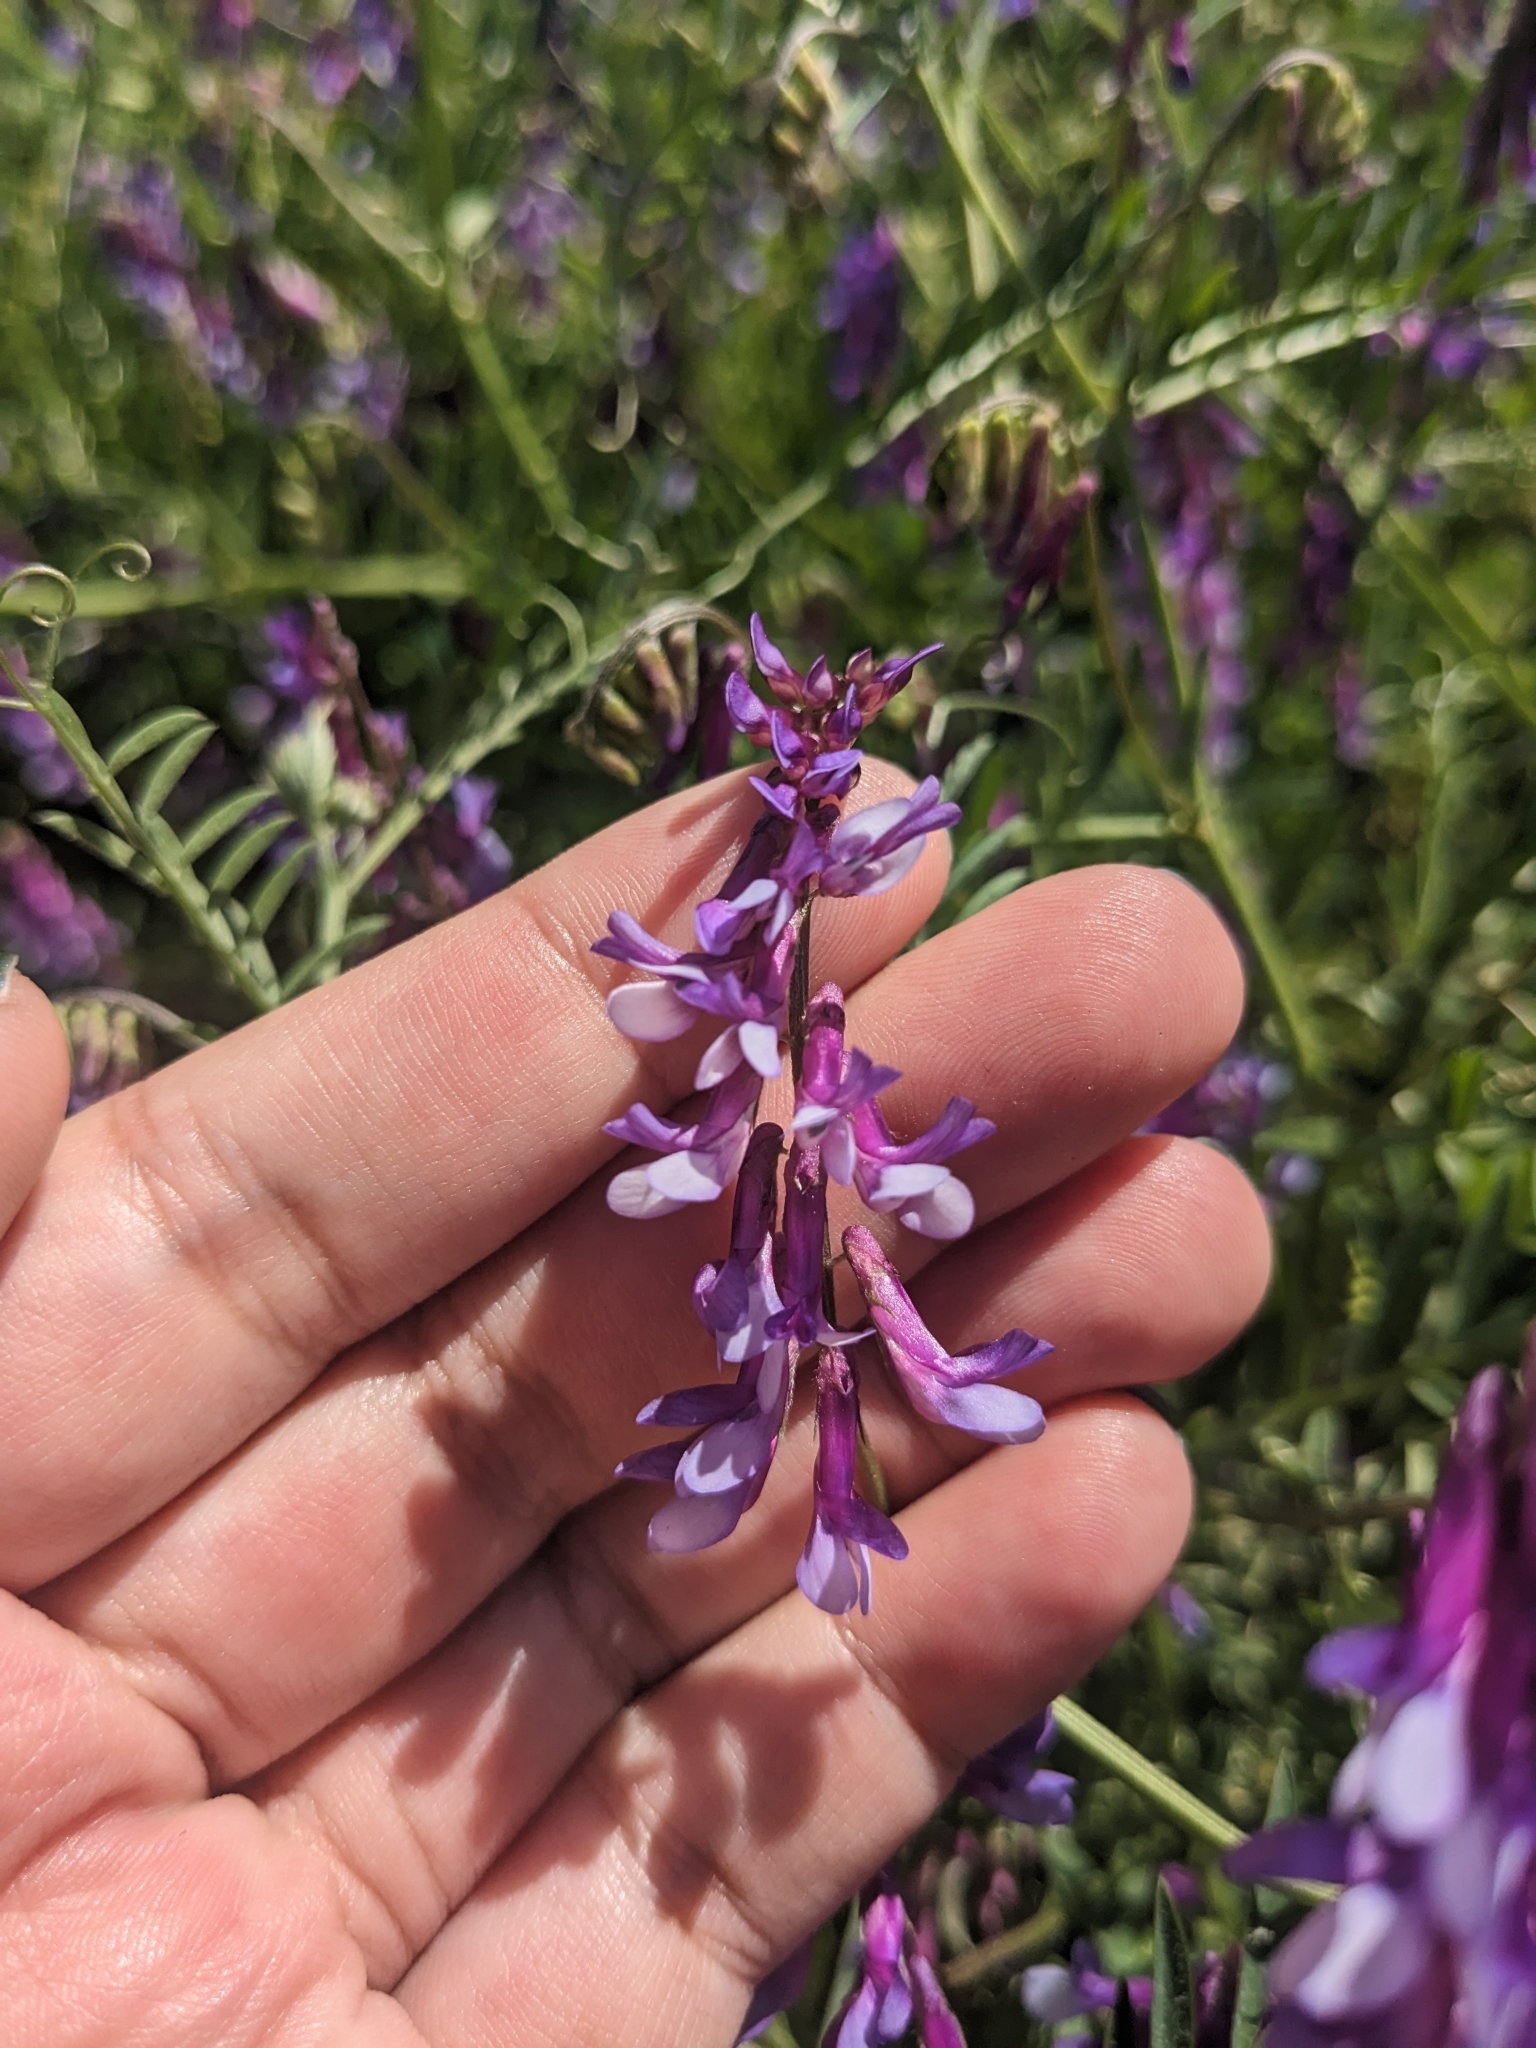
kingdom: Plantae
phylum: Tracheophyta
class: Magnoliopsida
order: Fabales
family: Fabaceae
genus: Vicia
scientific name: Vicia villosa
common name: Fodder vetch
